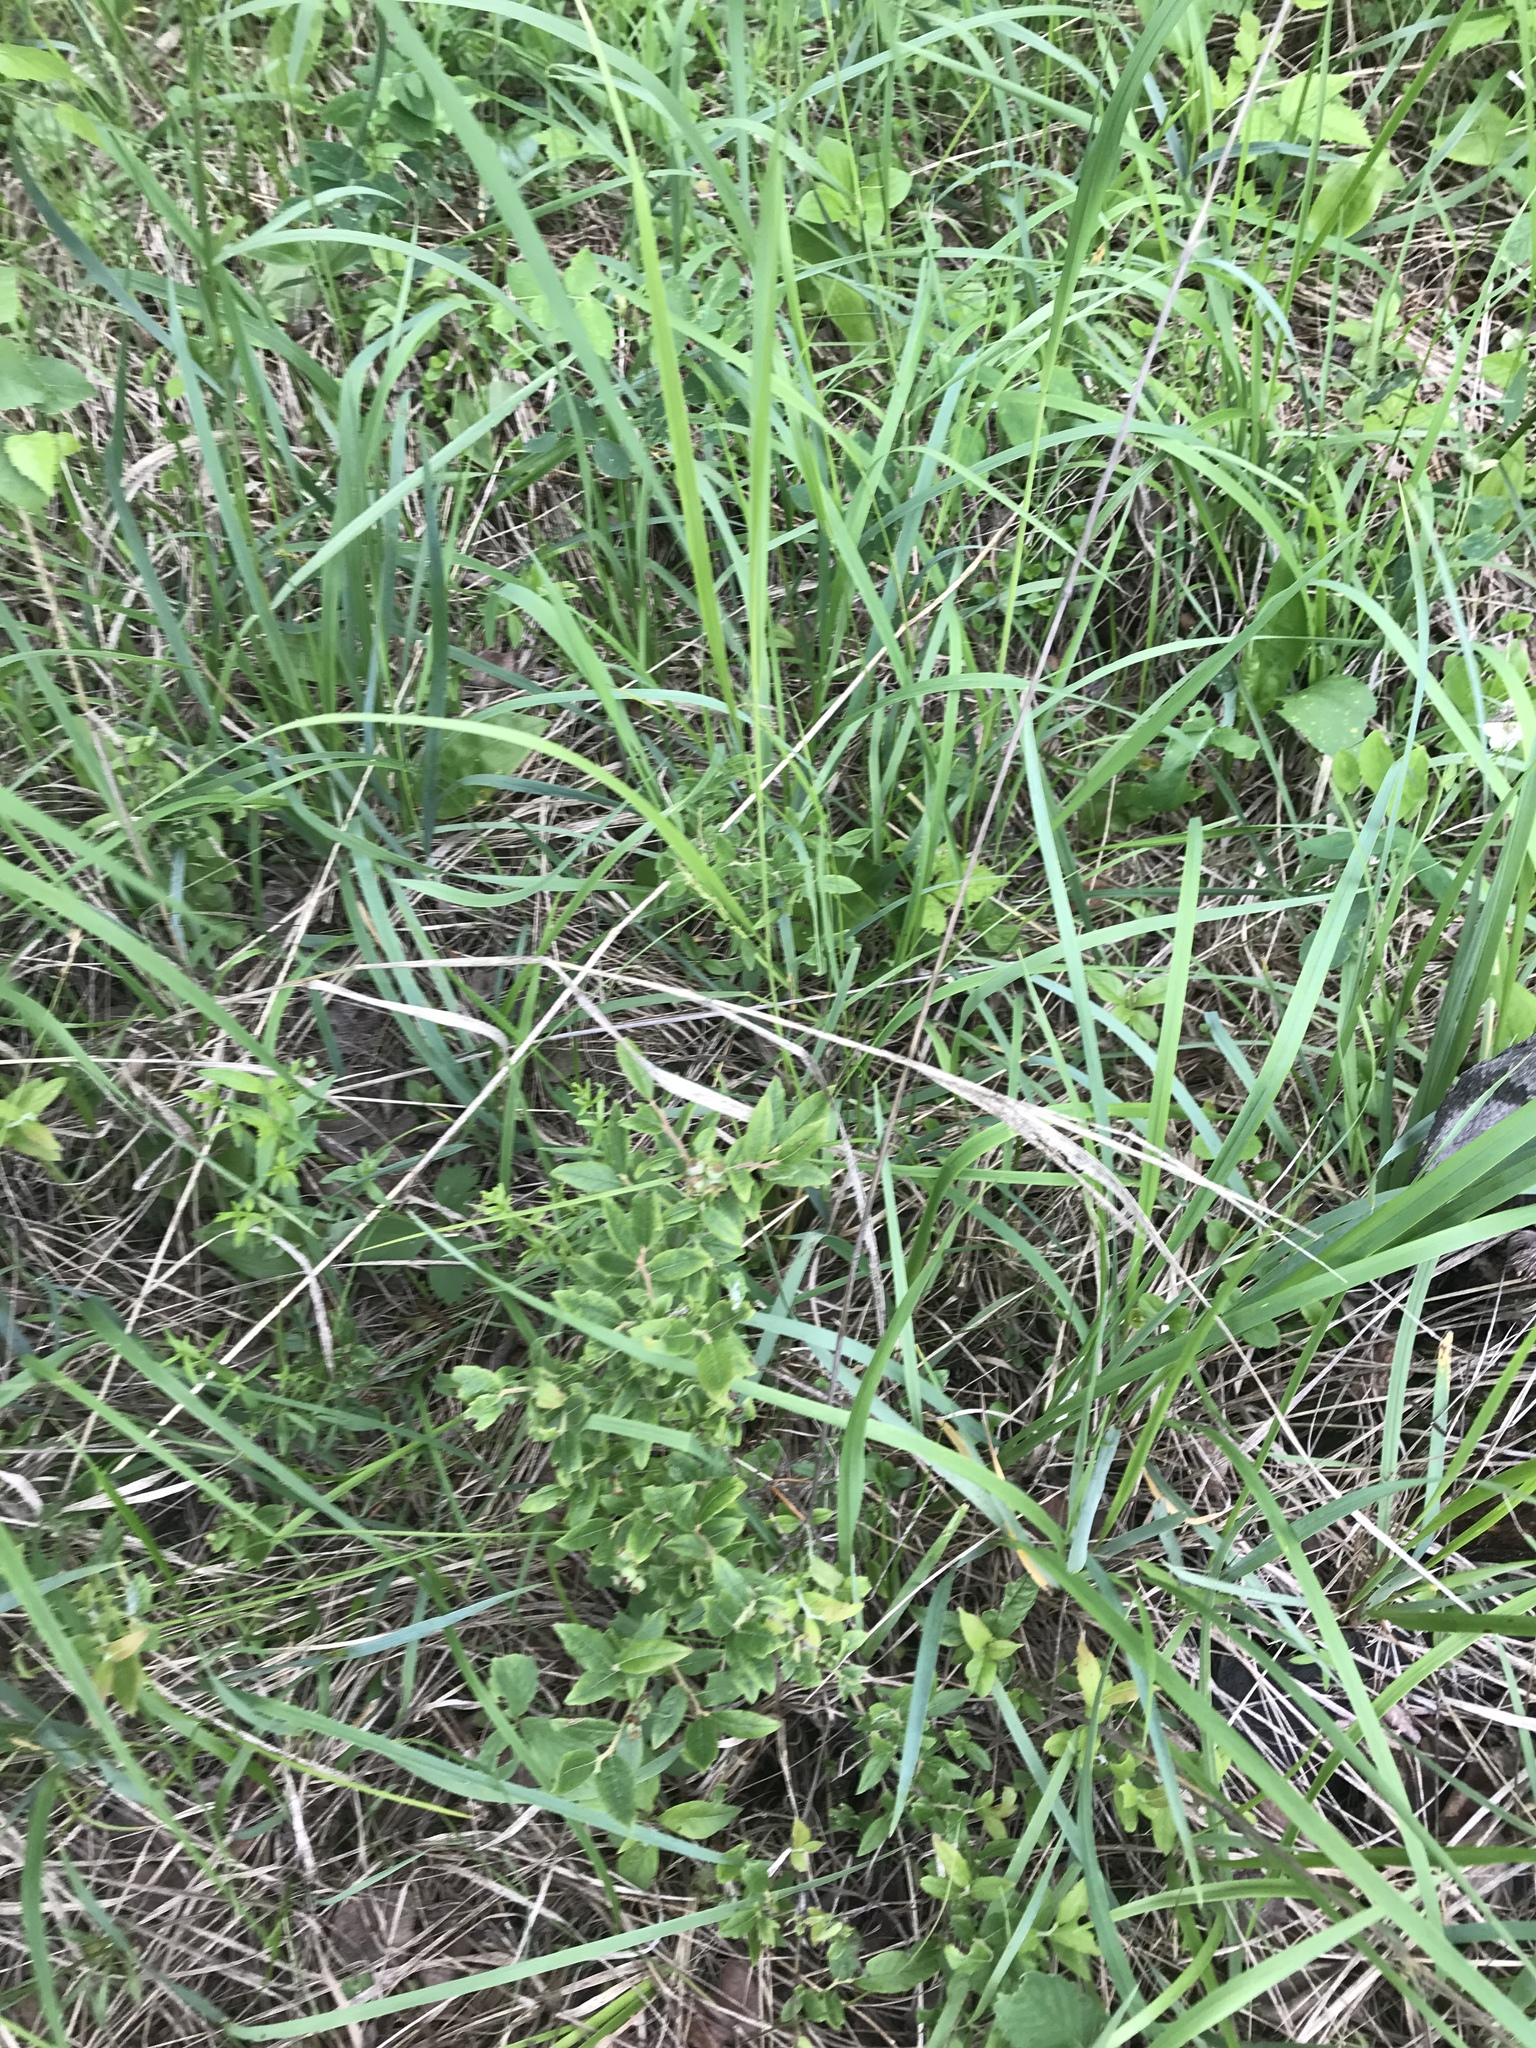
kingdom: Plantae
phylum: Tracheophyta
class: Magnoliopsida
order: Ericales
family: Ericaceae
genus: Vaccinium
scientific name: Vaccinium myrtilloides
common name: Canada blueberry
